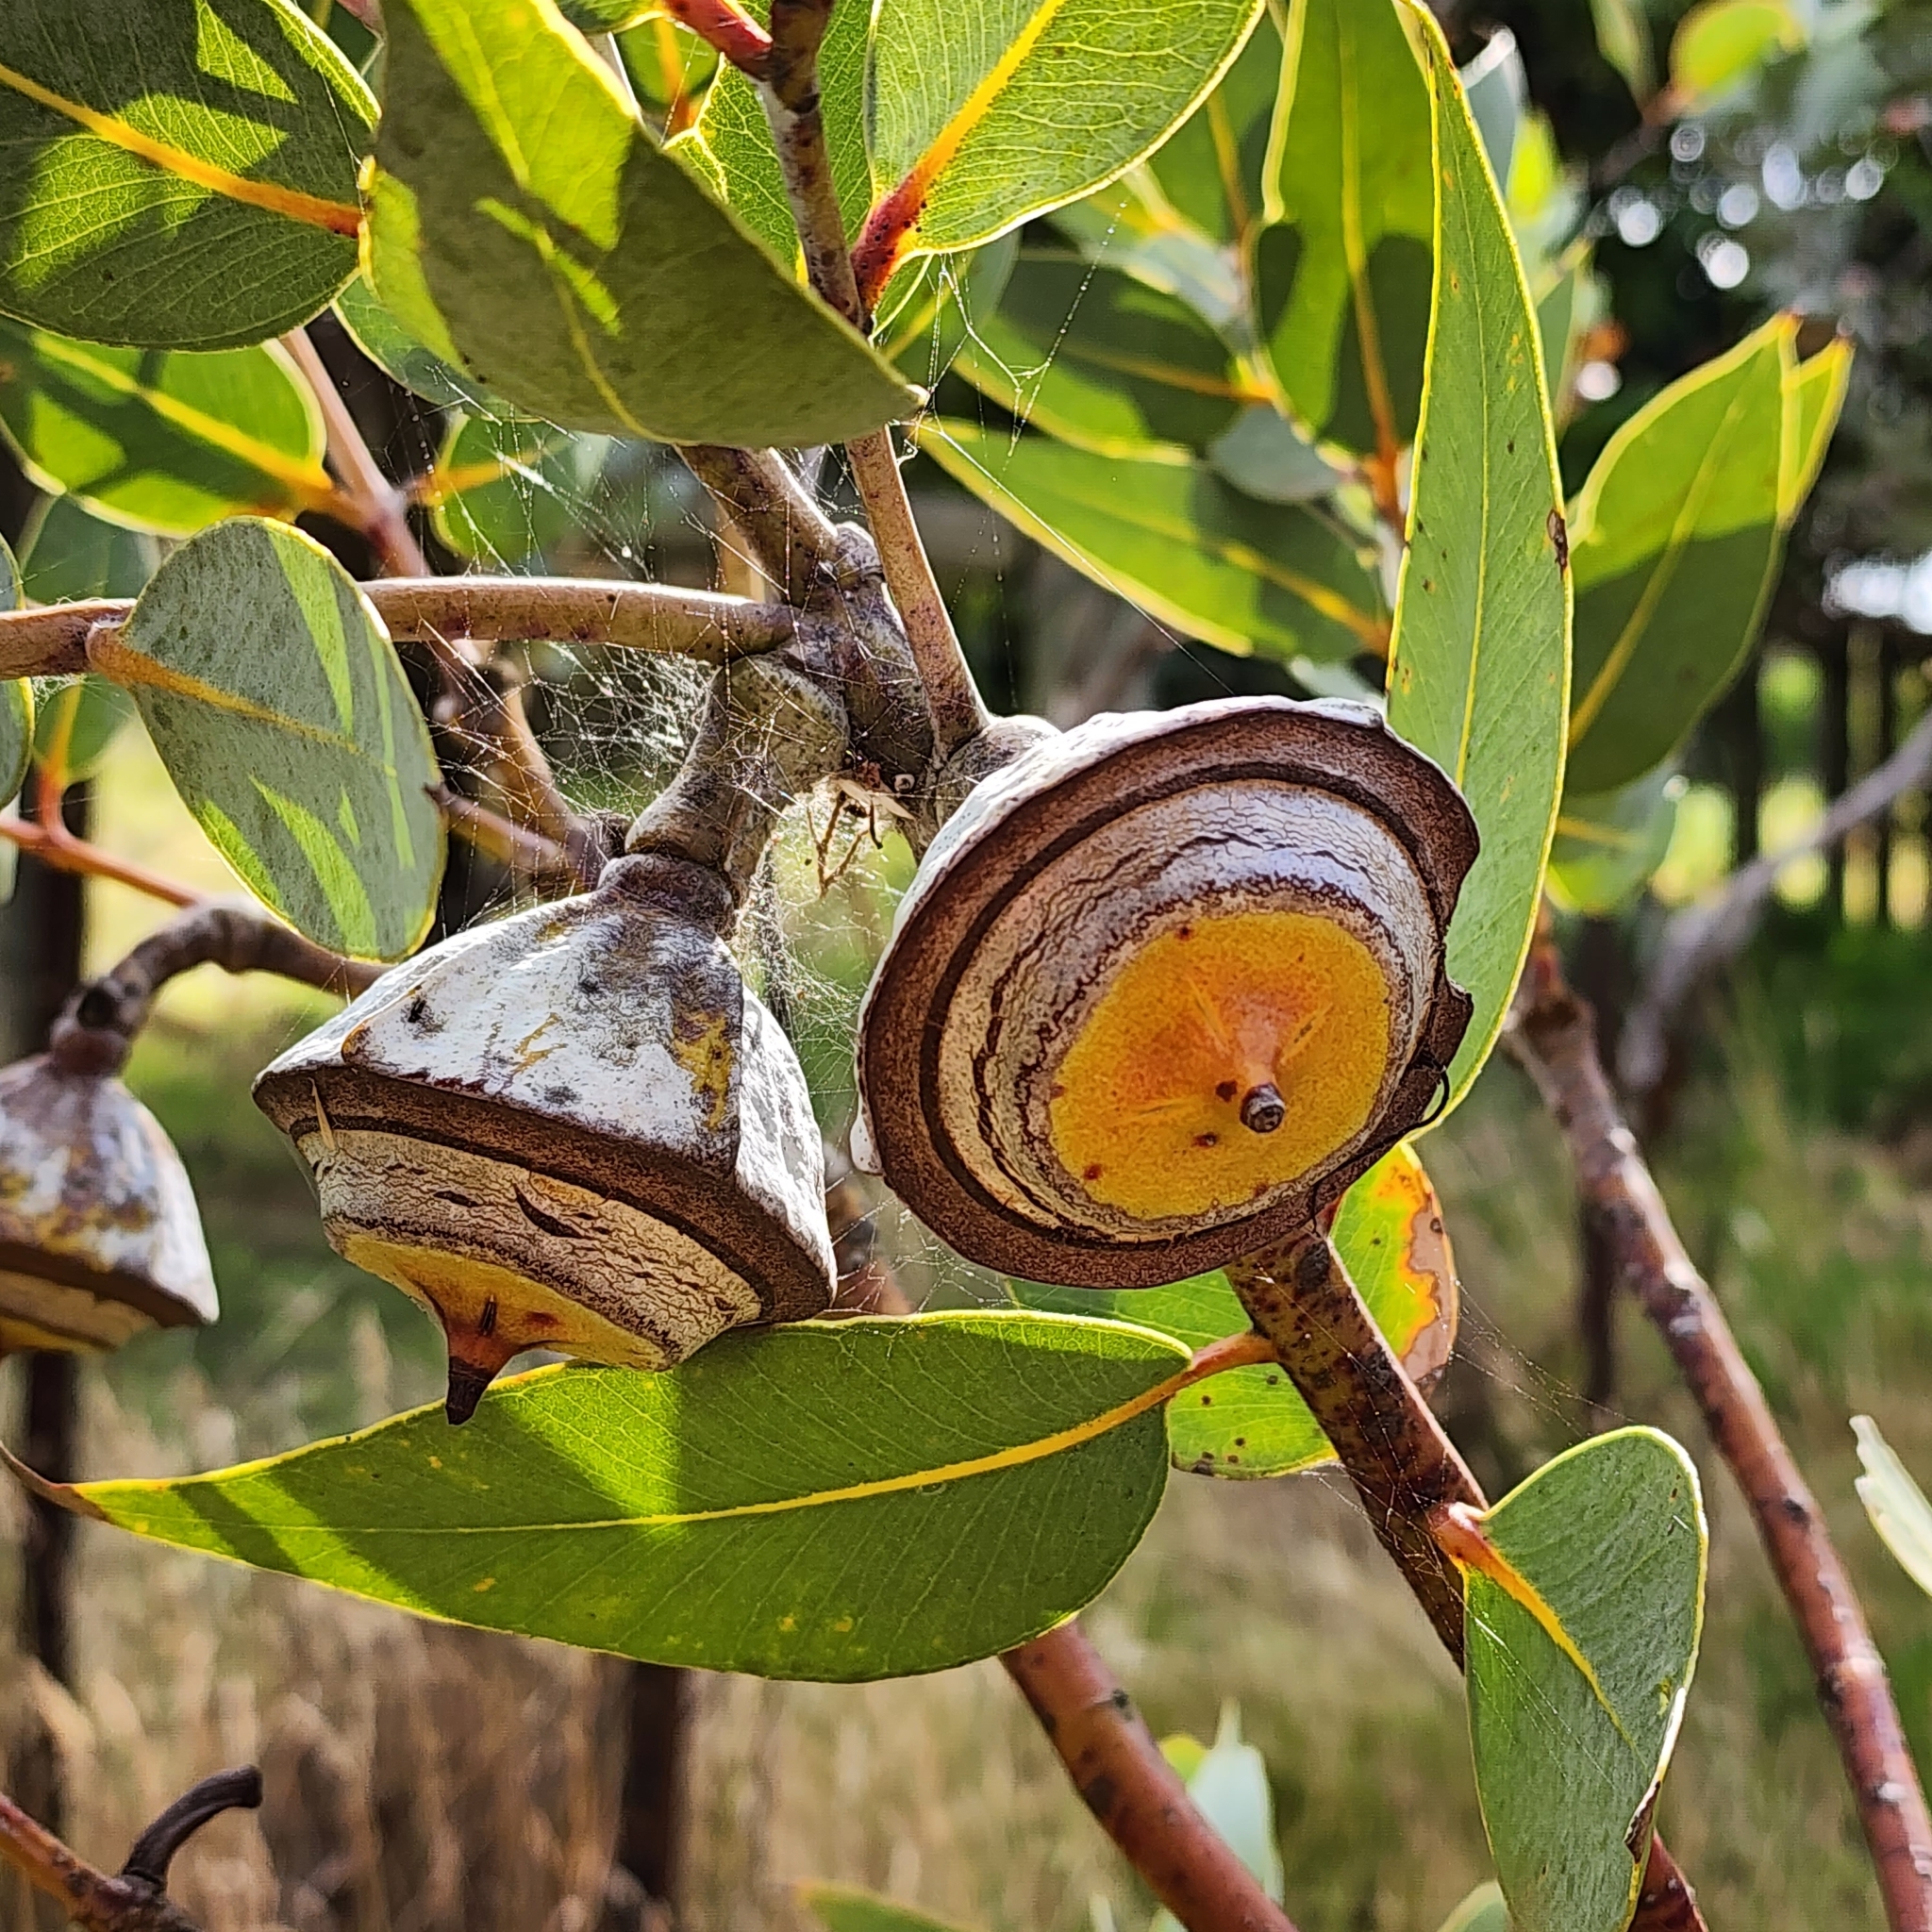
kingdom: Plantae
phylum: Tracheophyta
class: Magnoliopsida
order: Myrtales
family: Myrtaceae
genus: Eucalyptus
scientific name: Eucalyptus
